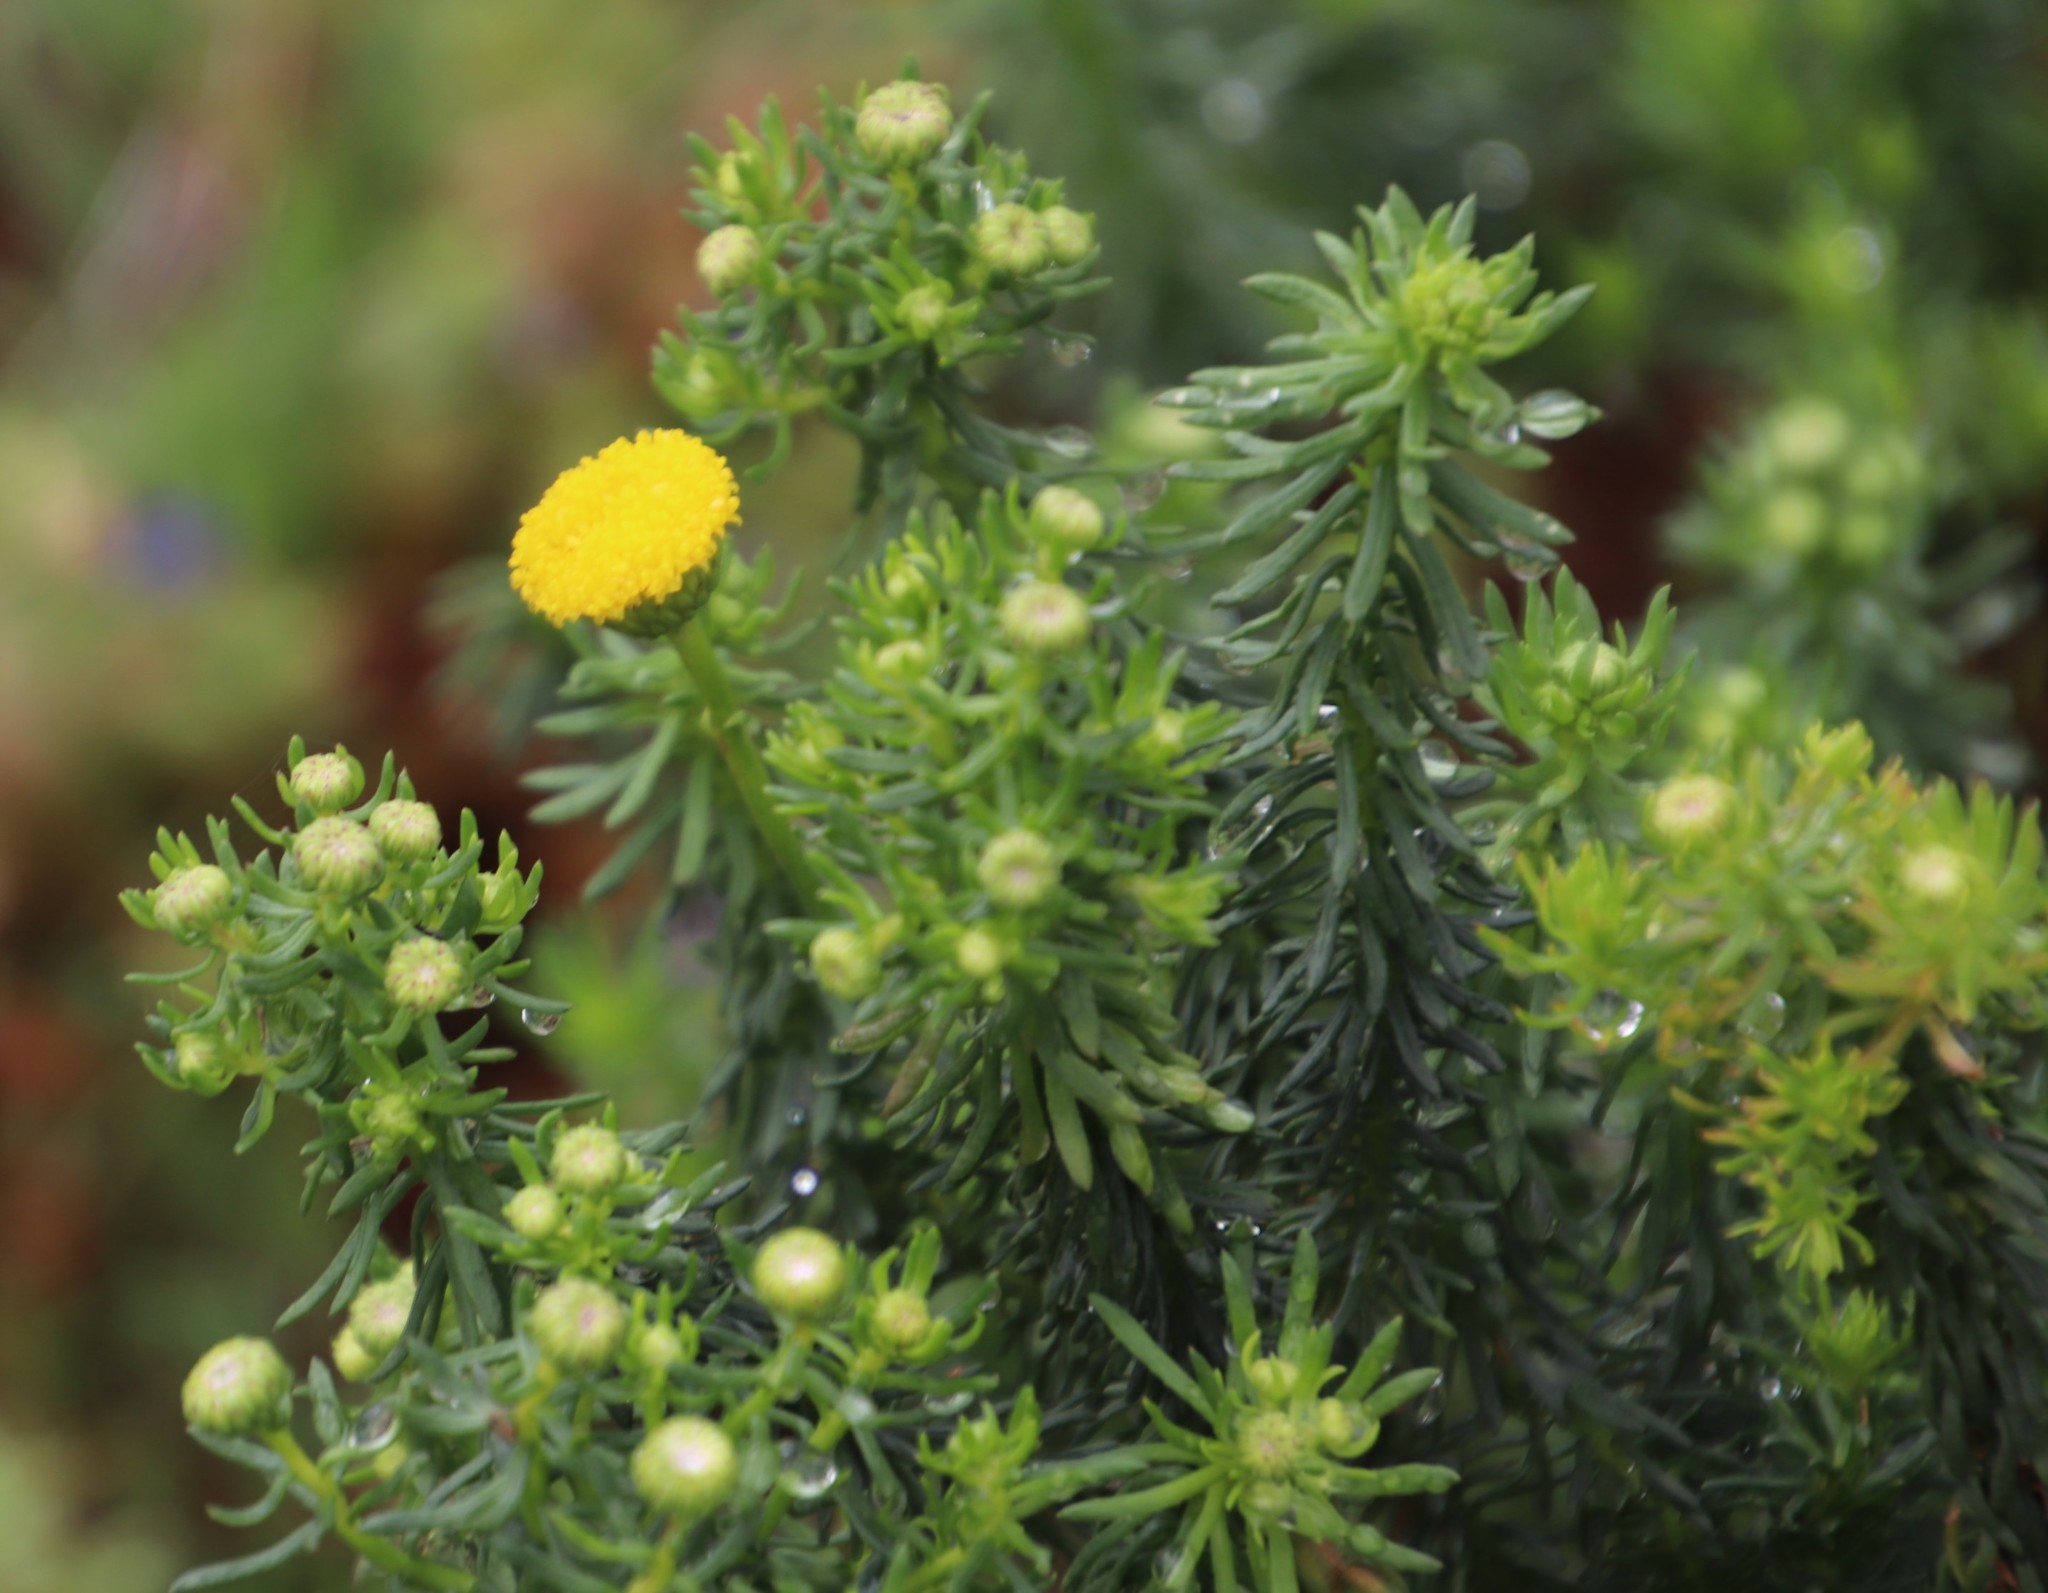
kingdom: Plantae
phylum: Tracheophyta
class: Magnoliopsida
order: Asterales
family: Asteraceae
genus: Chrysocoma
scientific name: Chrysocoma cernua
